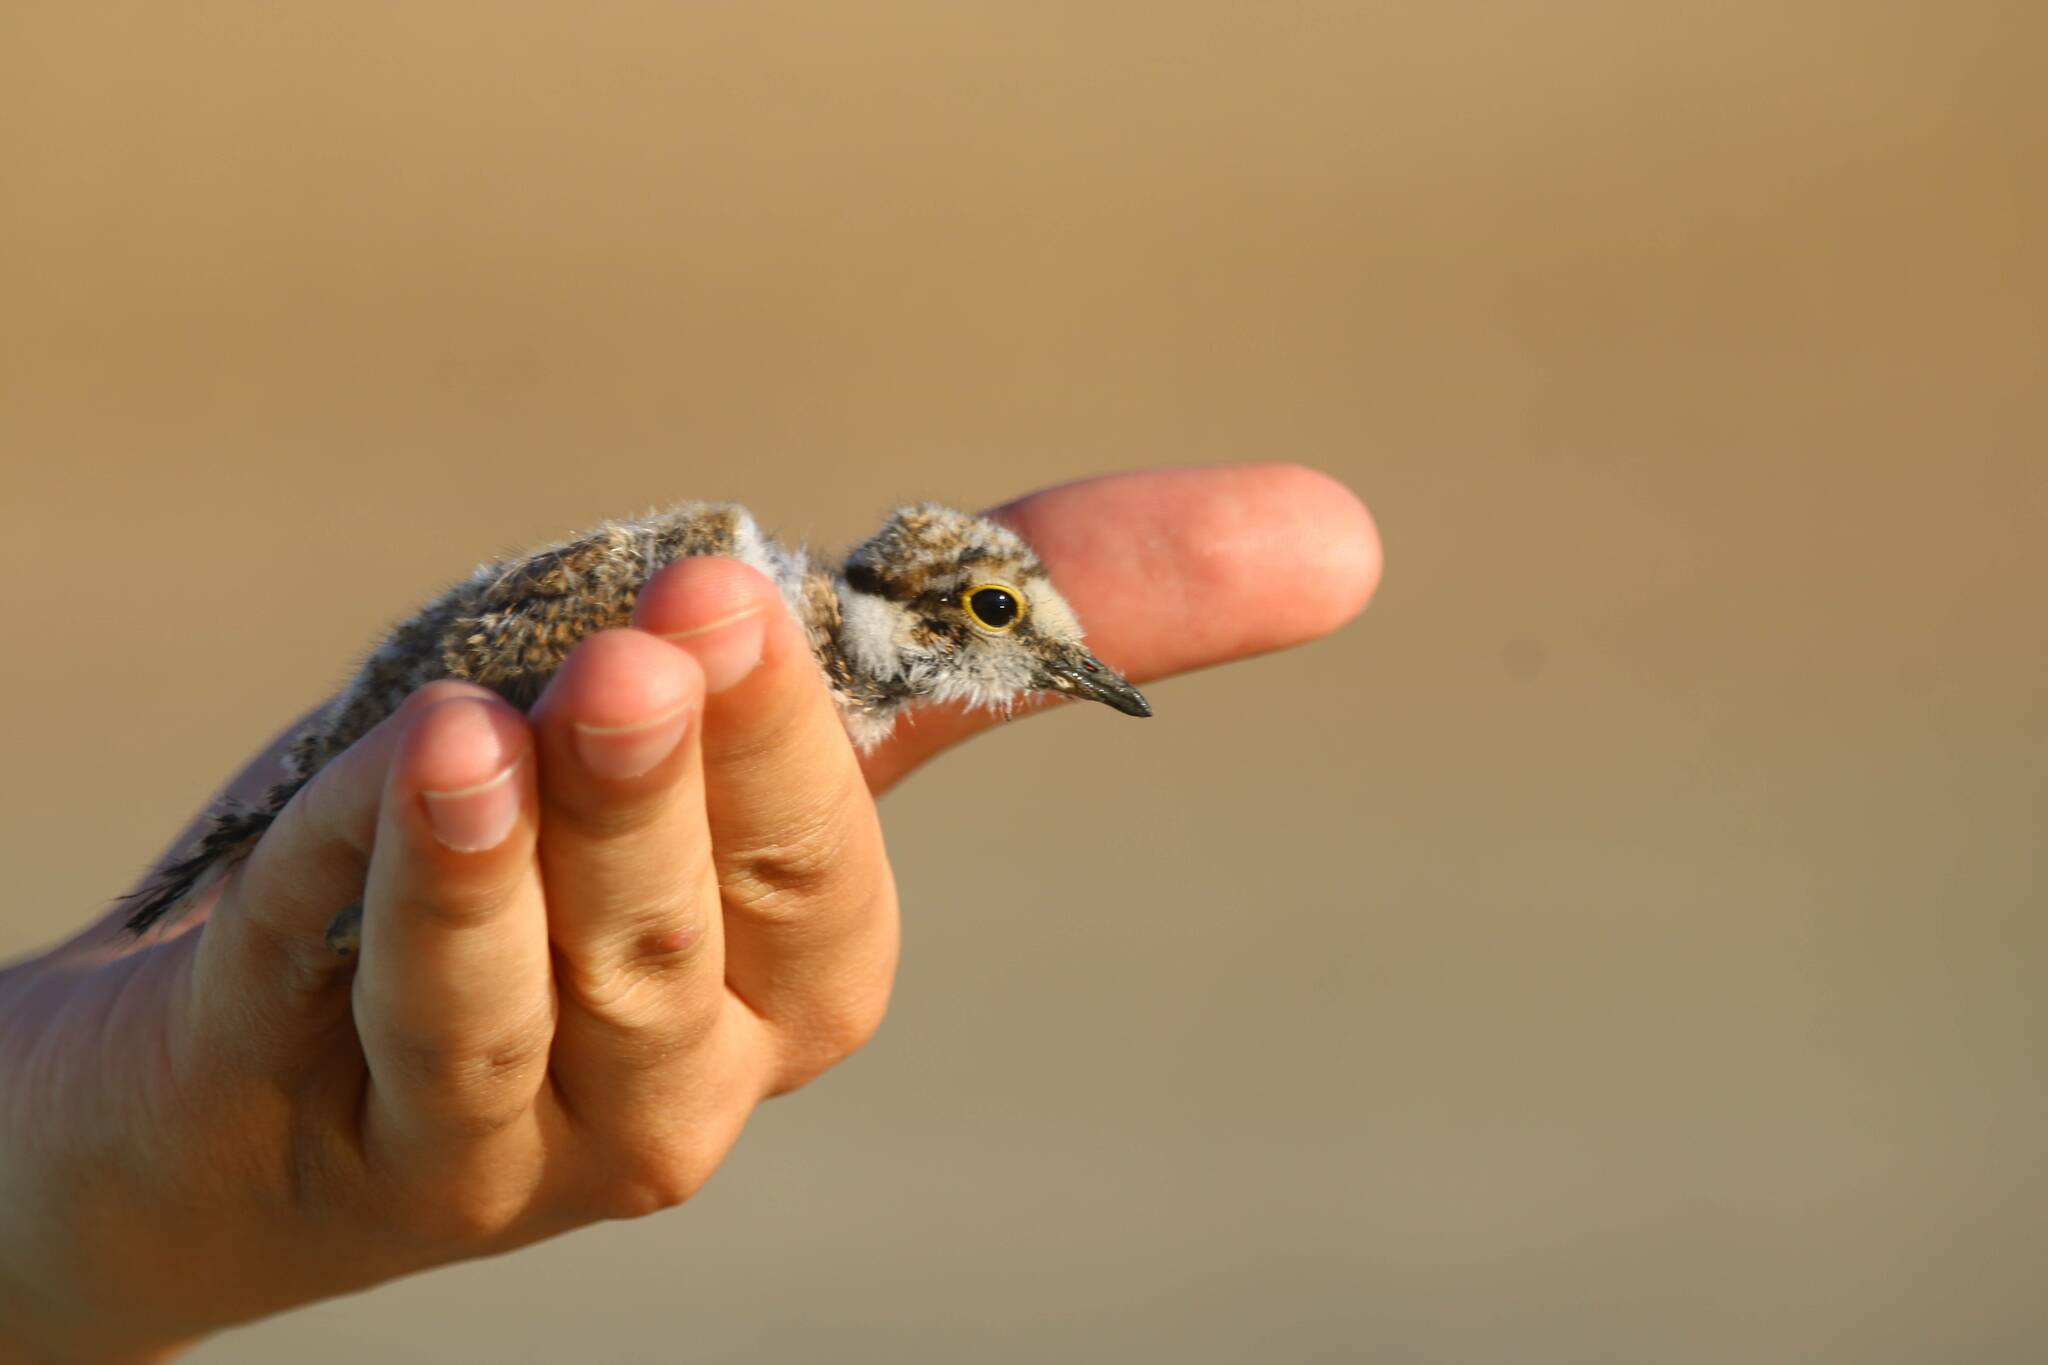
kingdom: Animalia
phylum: Chordata
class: Aves
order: Charadriiformes
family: Charadriidae
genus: Charadrius
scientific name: Charadrius dubius
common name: Little ringed plover
